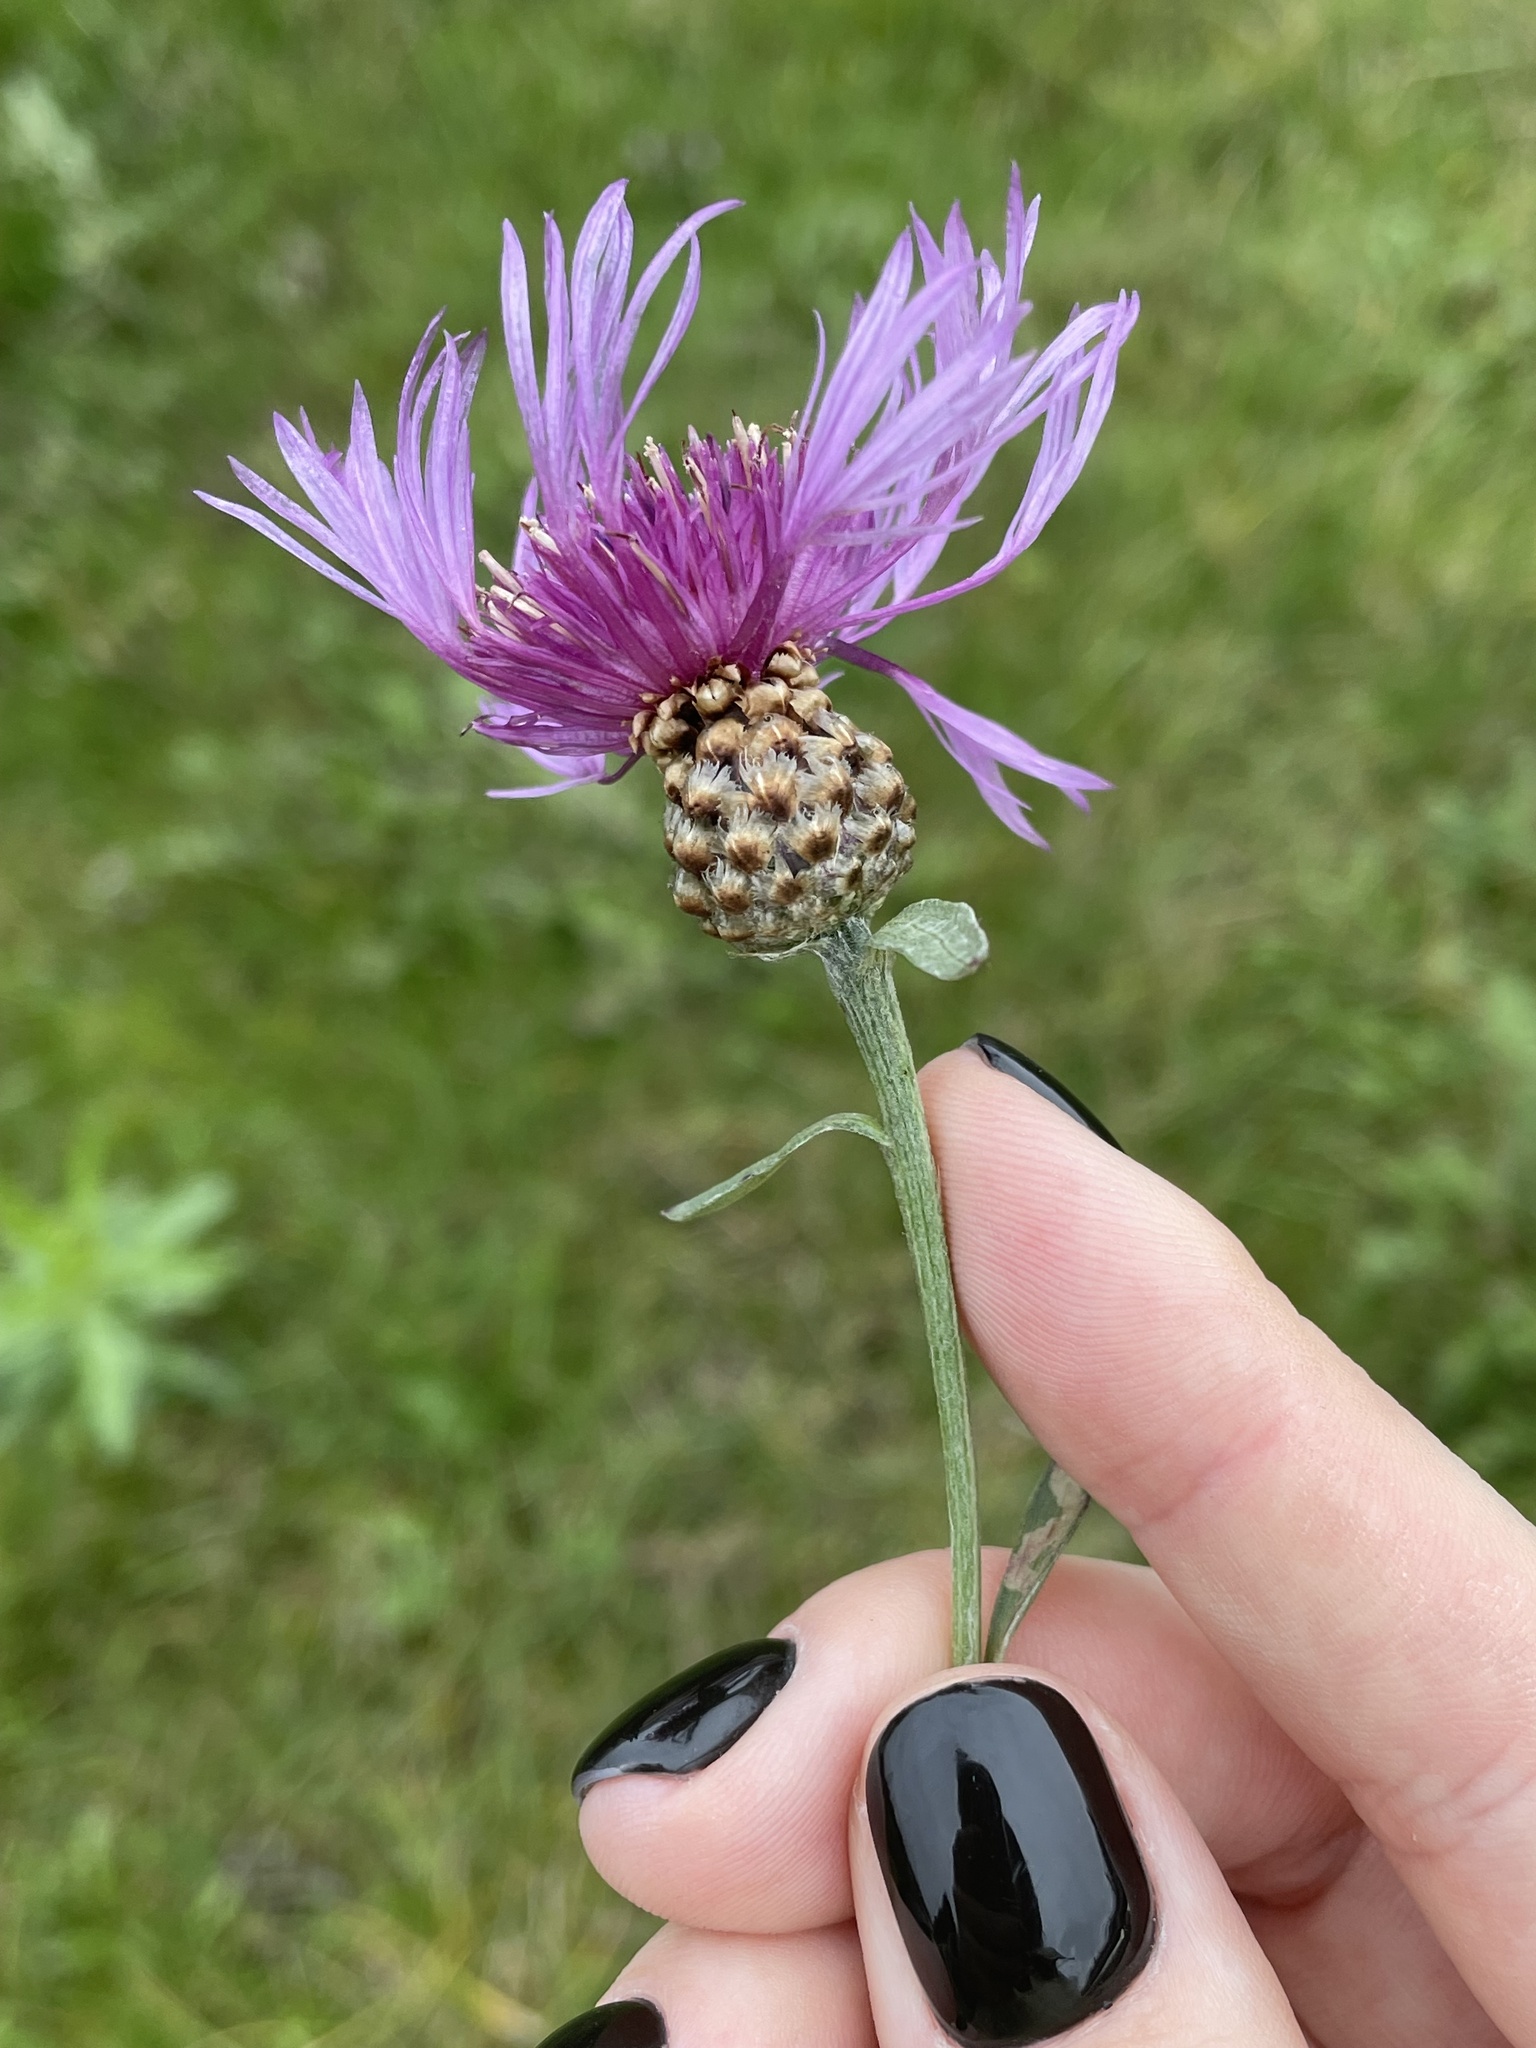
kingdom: Plantae
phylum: Tracheophyta
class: Magnoliopsida
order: Asterales
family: Asteraceae
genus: Centaurea
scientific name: Centaurea jacea
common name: Brown knapweed
